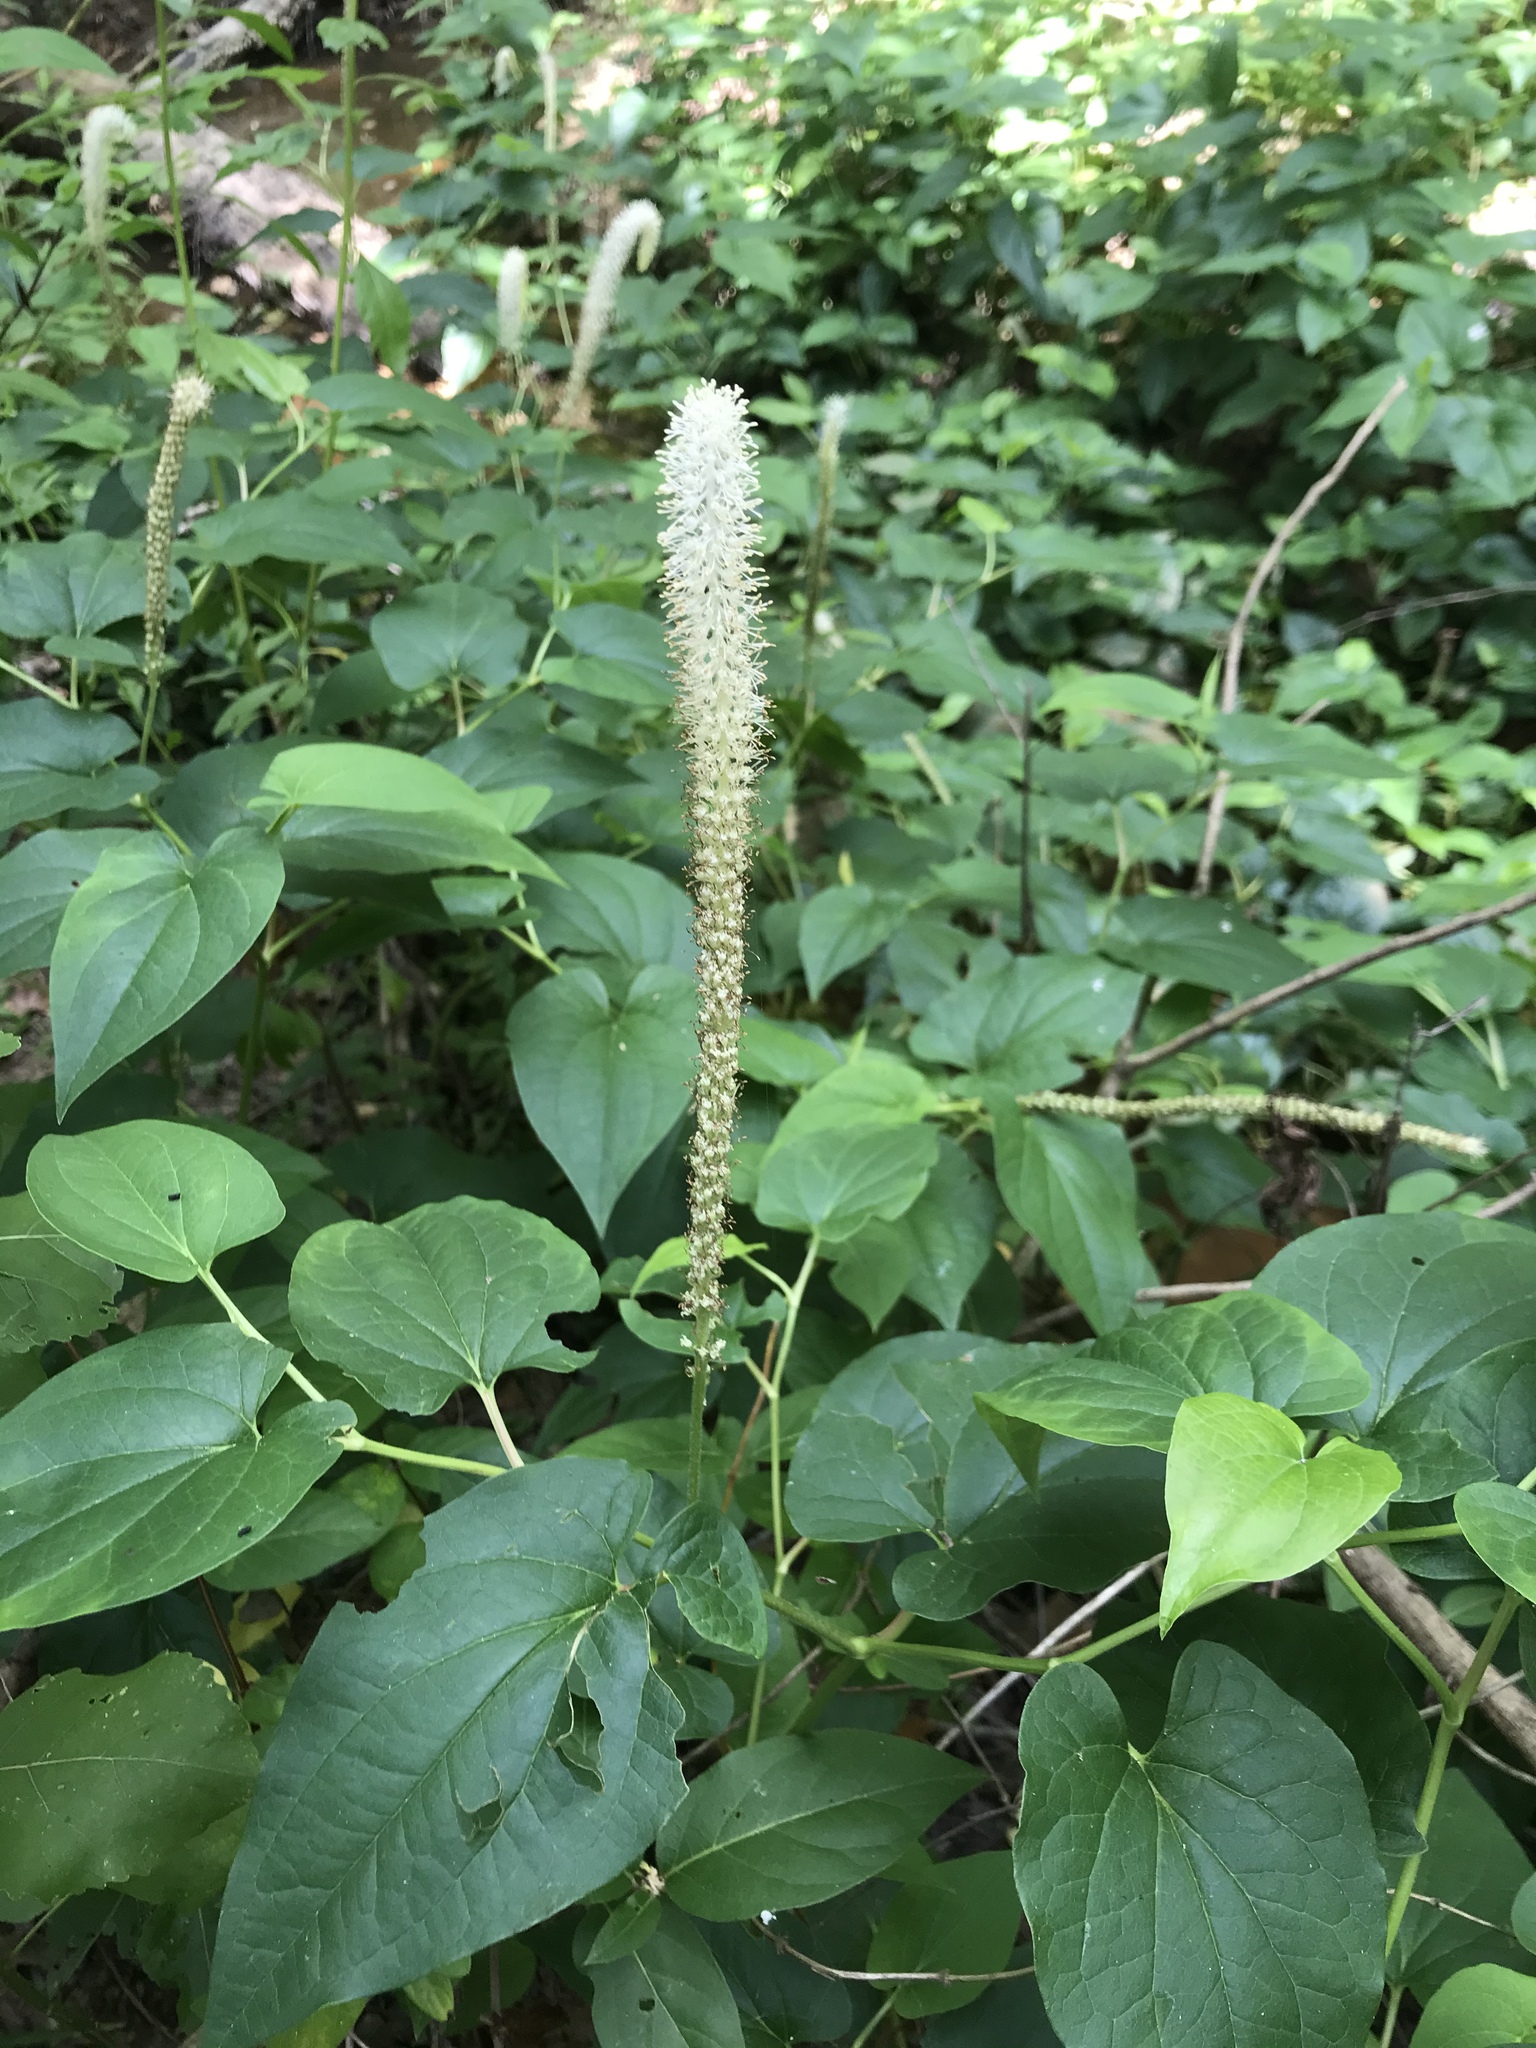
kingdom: Plantae
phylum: Tracheophyta
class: Magnoliopsida
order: Piperales
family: Saururaceae
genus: Saururus
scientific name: Saururus cernuus
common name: Lizard's-tail
